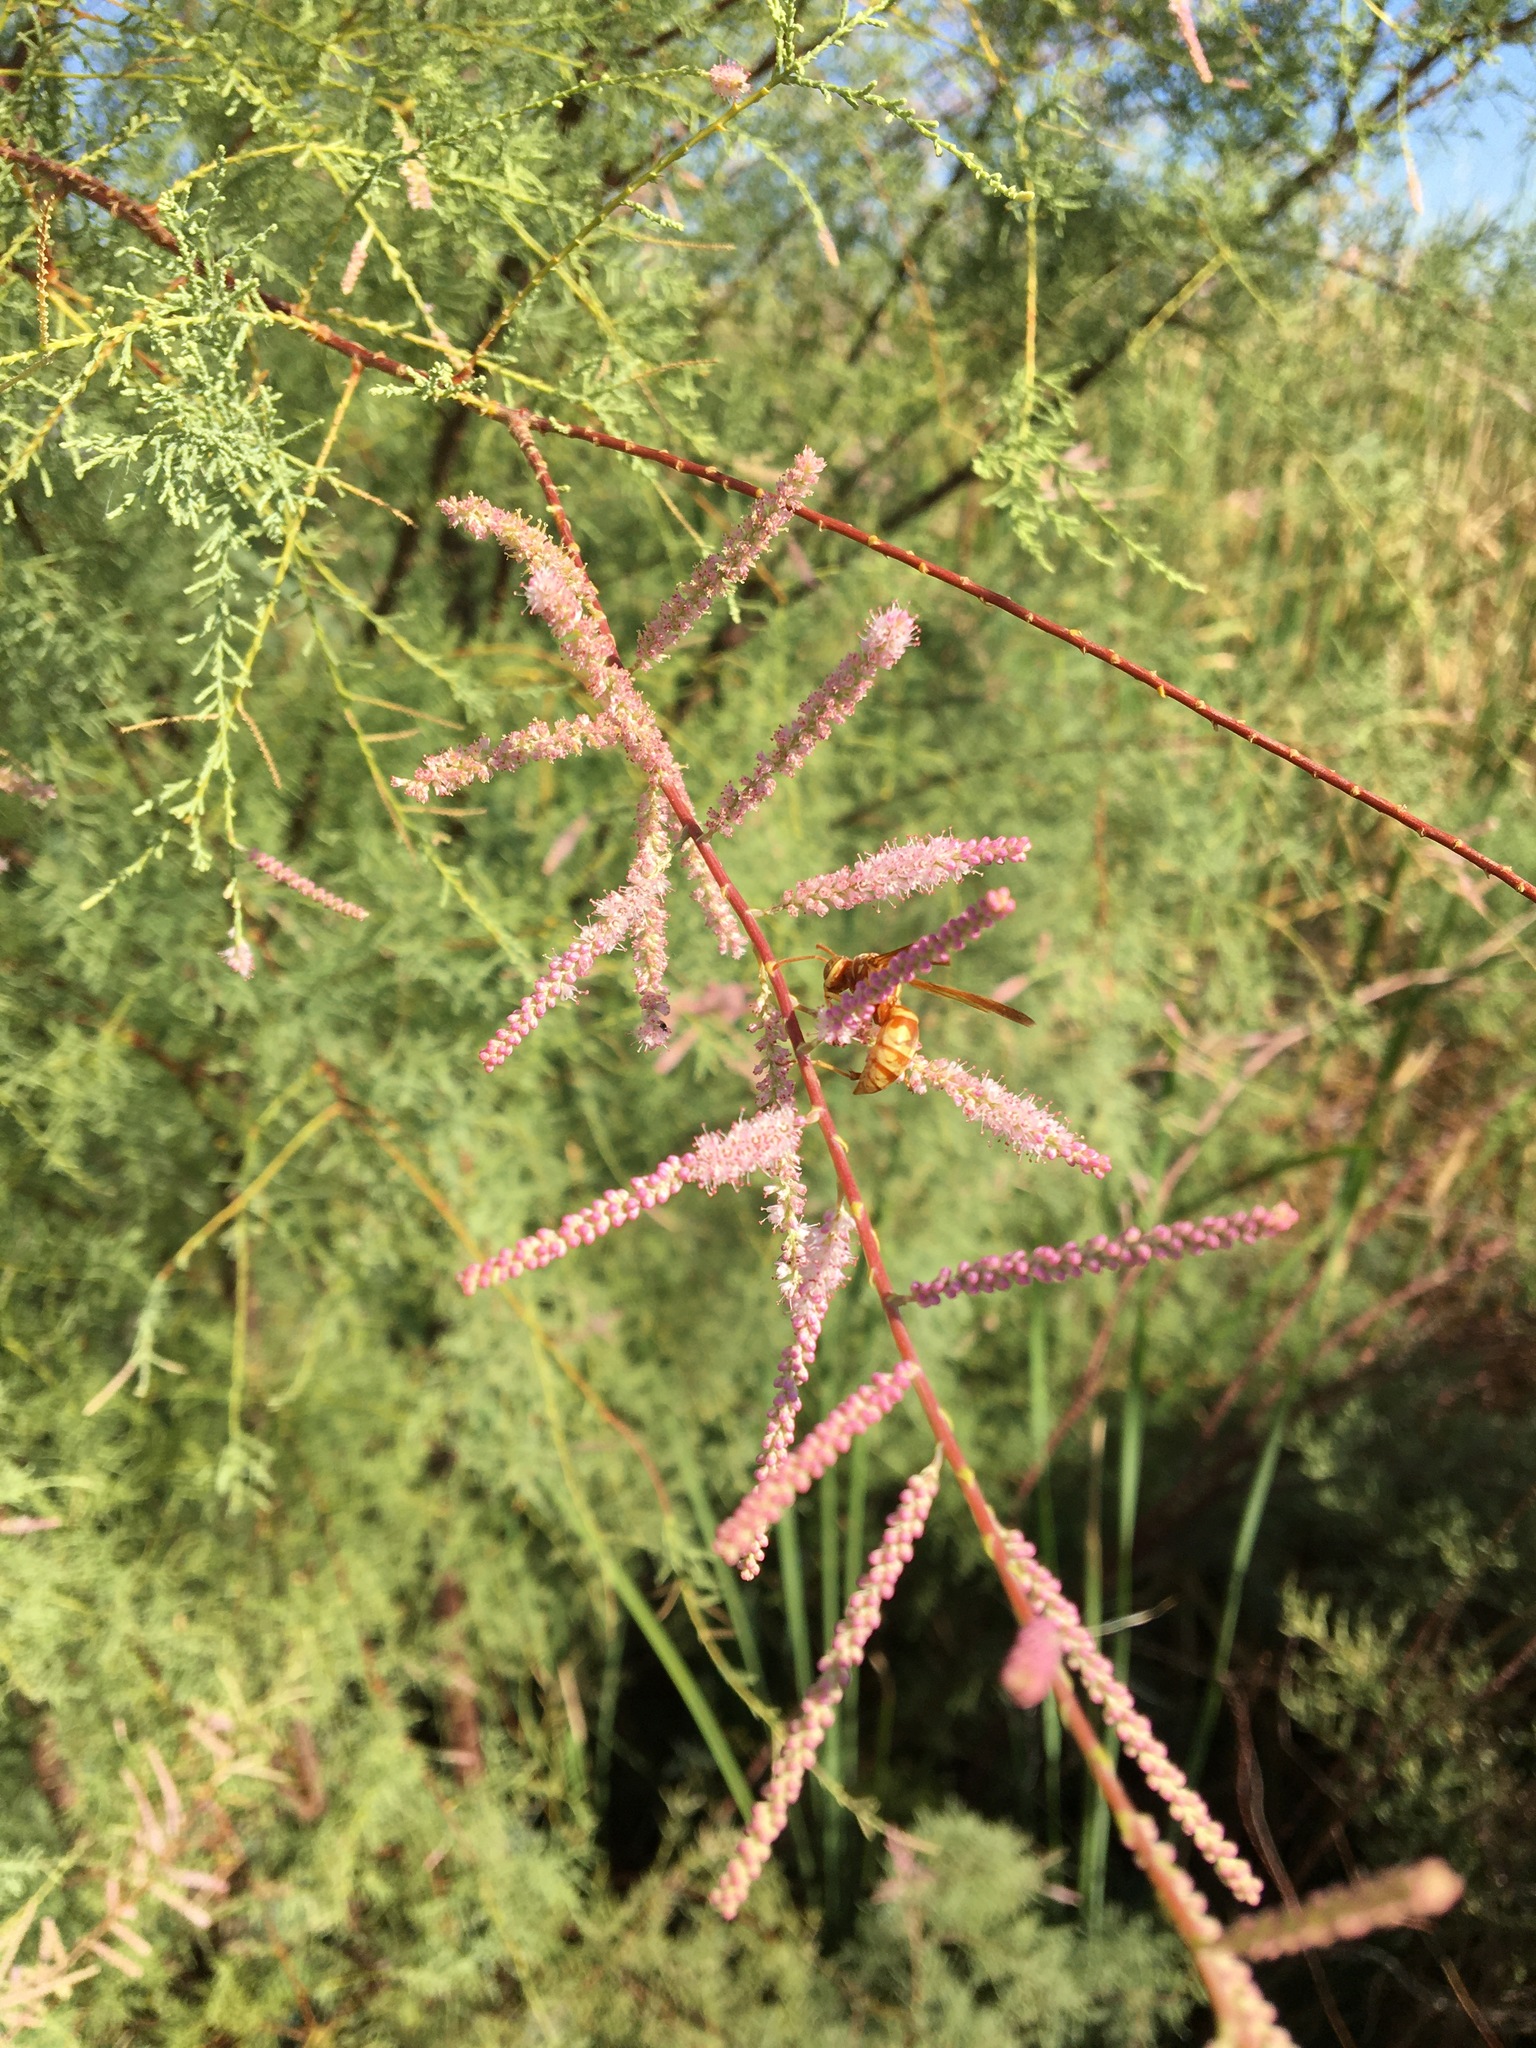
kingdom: Animalia
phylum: Arthropoda
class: Insecta
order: Hymenoptera
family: Eumenidae
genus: Polistes
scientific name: Polistes aurifer
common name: Paper wasp
